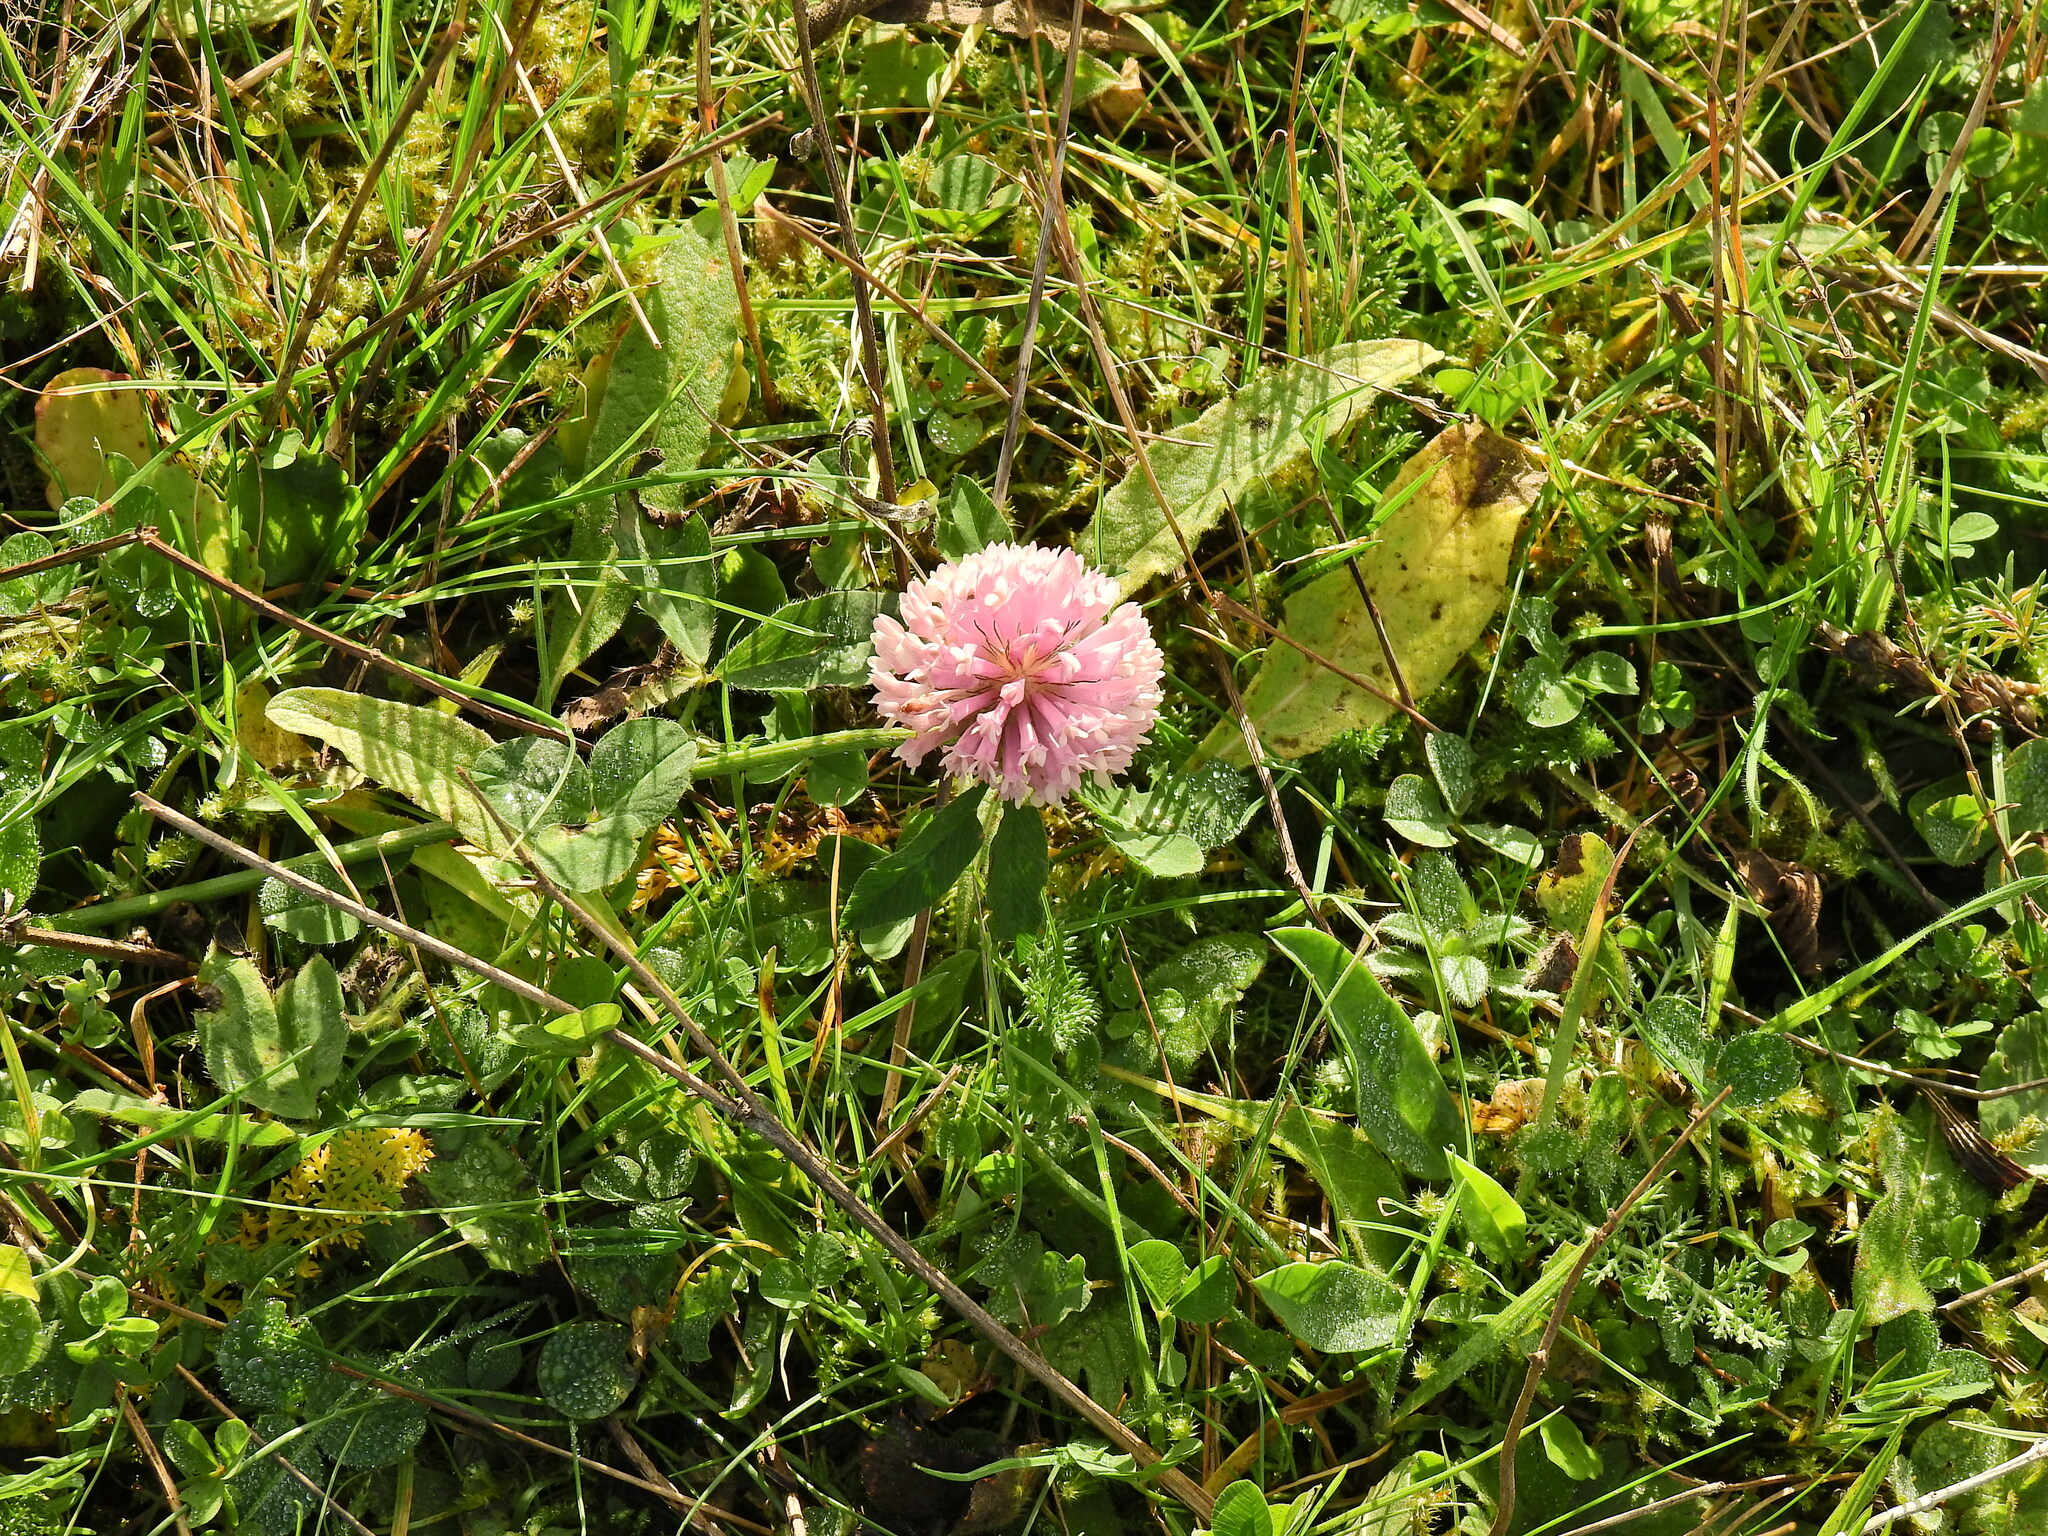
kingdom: Plantae
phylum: Tracheophyta
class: Magnoliopsida
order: Fabales
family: Fabaceae
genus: Trifolium
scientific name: Trifolium pratense
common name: Red clover
